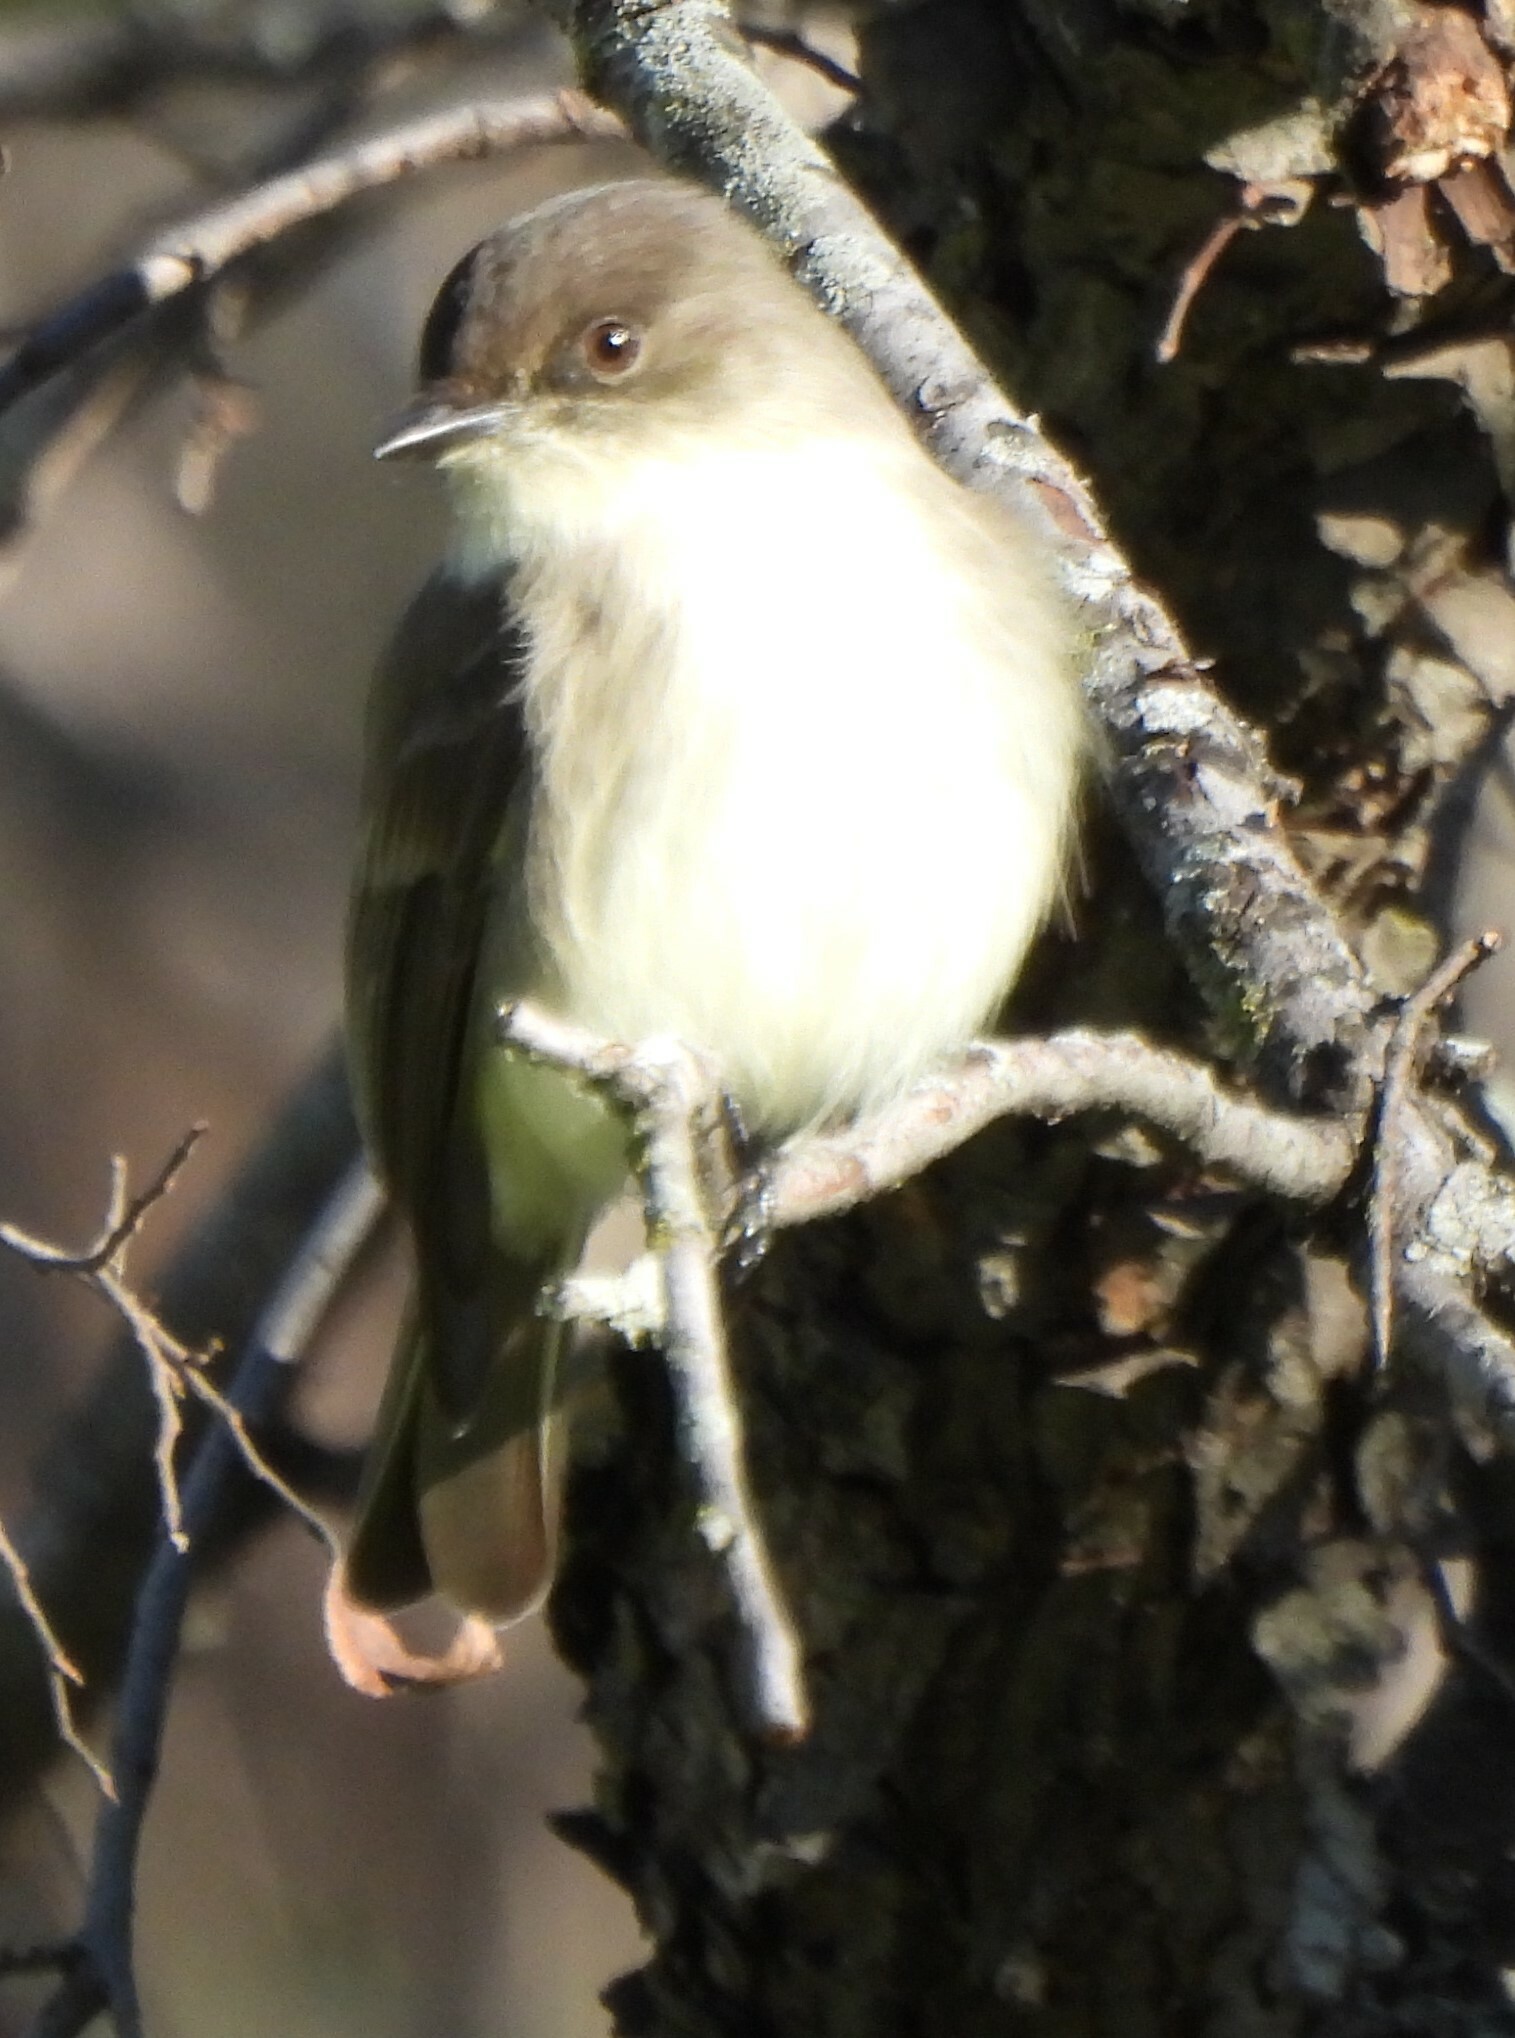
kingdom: Animalia
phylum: Chordata
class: Aves
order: Passeriformes
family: Tyrannidae
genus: Sayornis
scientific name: Sayornis phoebe
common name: Eastern phoebe
